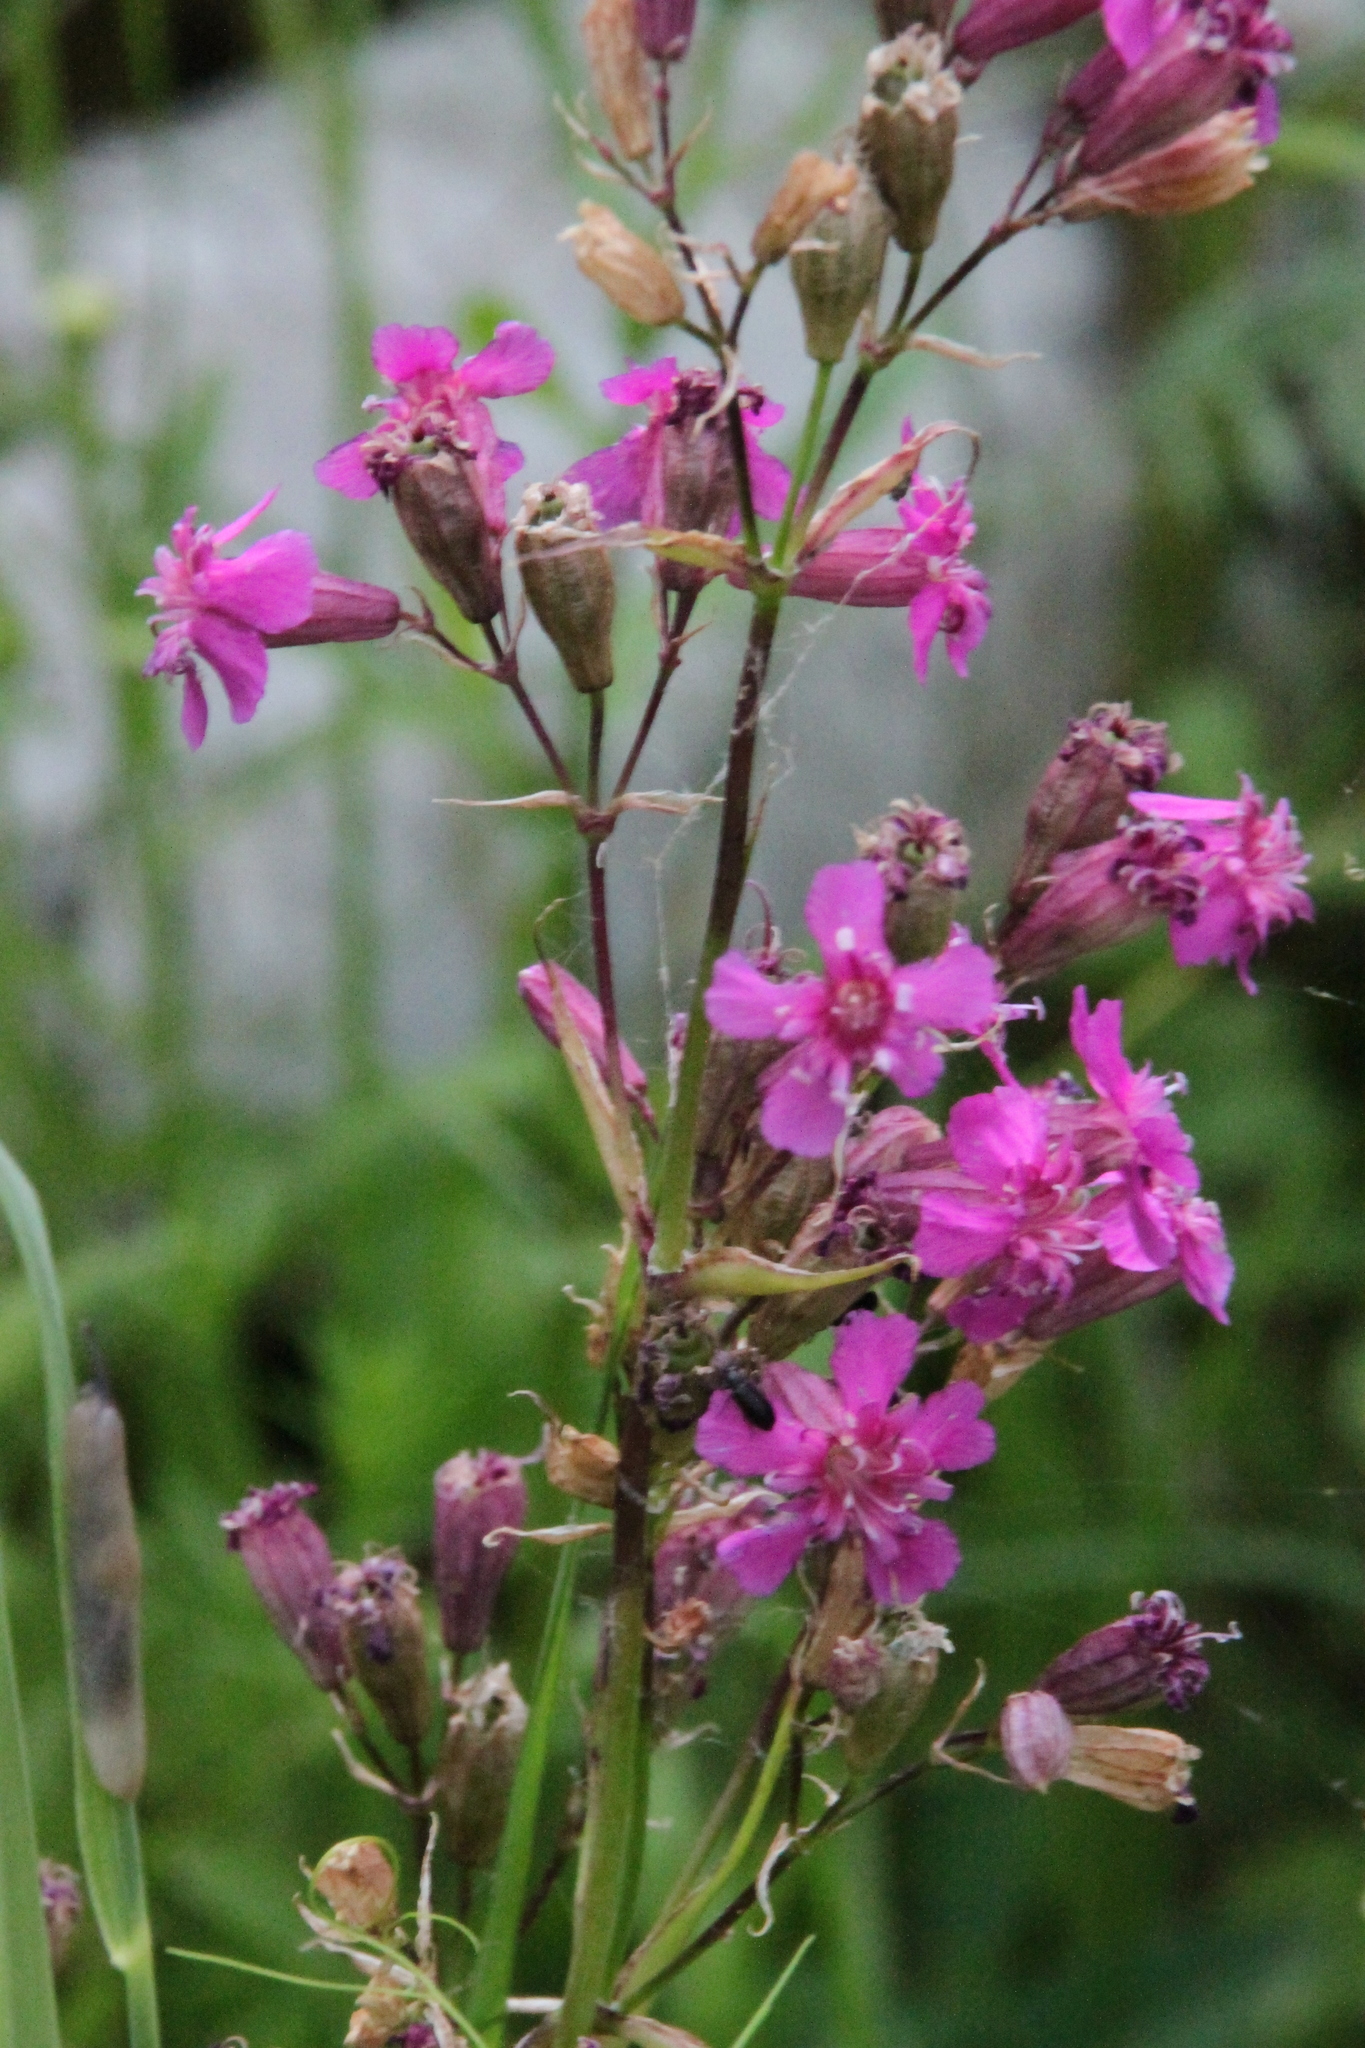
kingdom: Plantae
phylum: Tracheophyta
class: Magnoliopsida
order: Caryophyllales
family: Caryophyllaceae
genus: Viscaria
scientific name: Viscaria vulgaris
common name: Clammy campion
